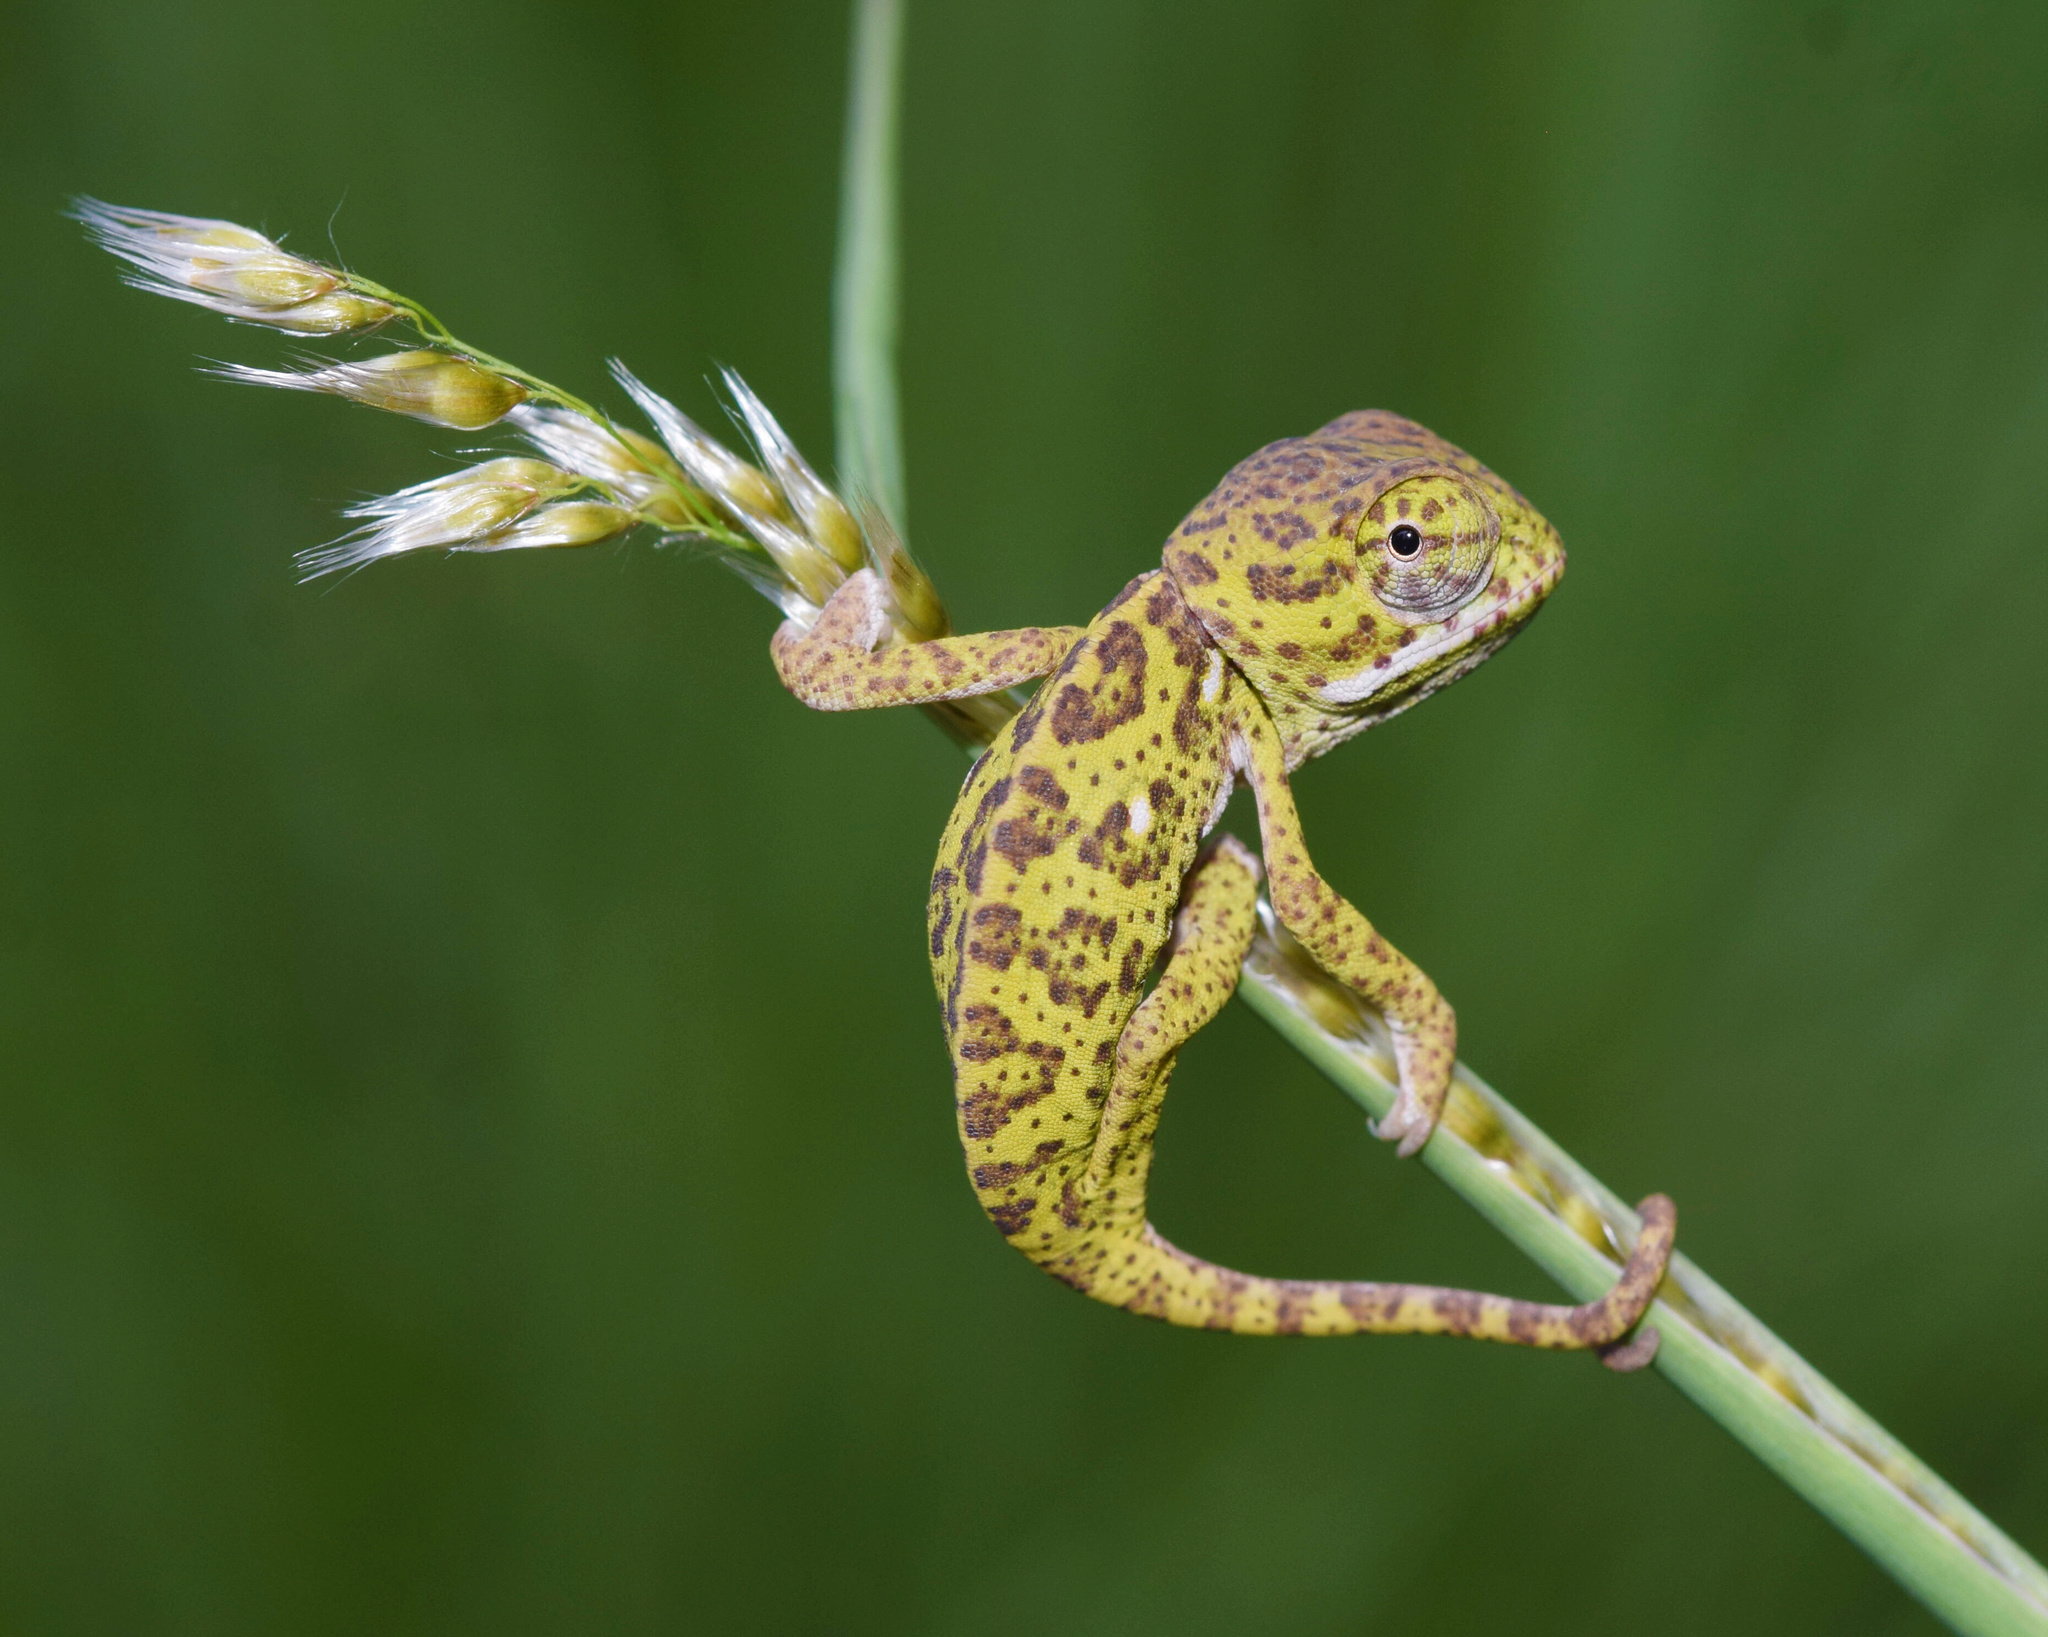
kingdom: Animalia
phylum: Chordata
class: Squamata
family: Chamaeleonidae
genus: Chamaeleo
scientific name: Chamaeleo dilepis
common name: Flapneck chameleon
